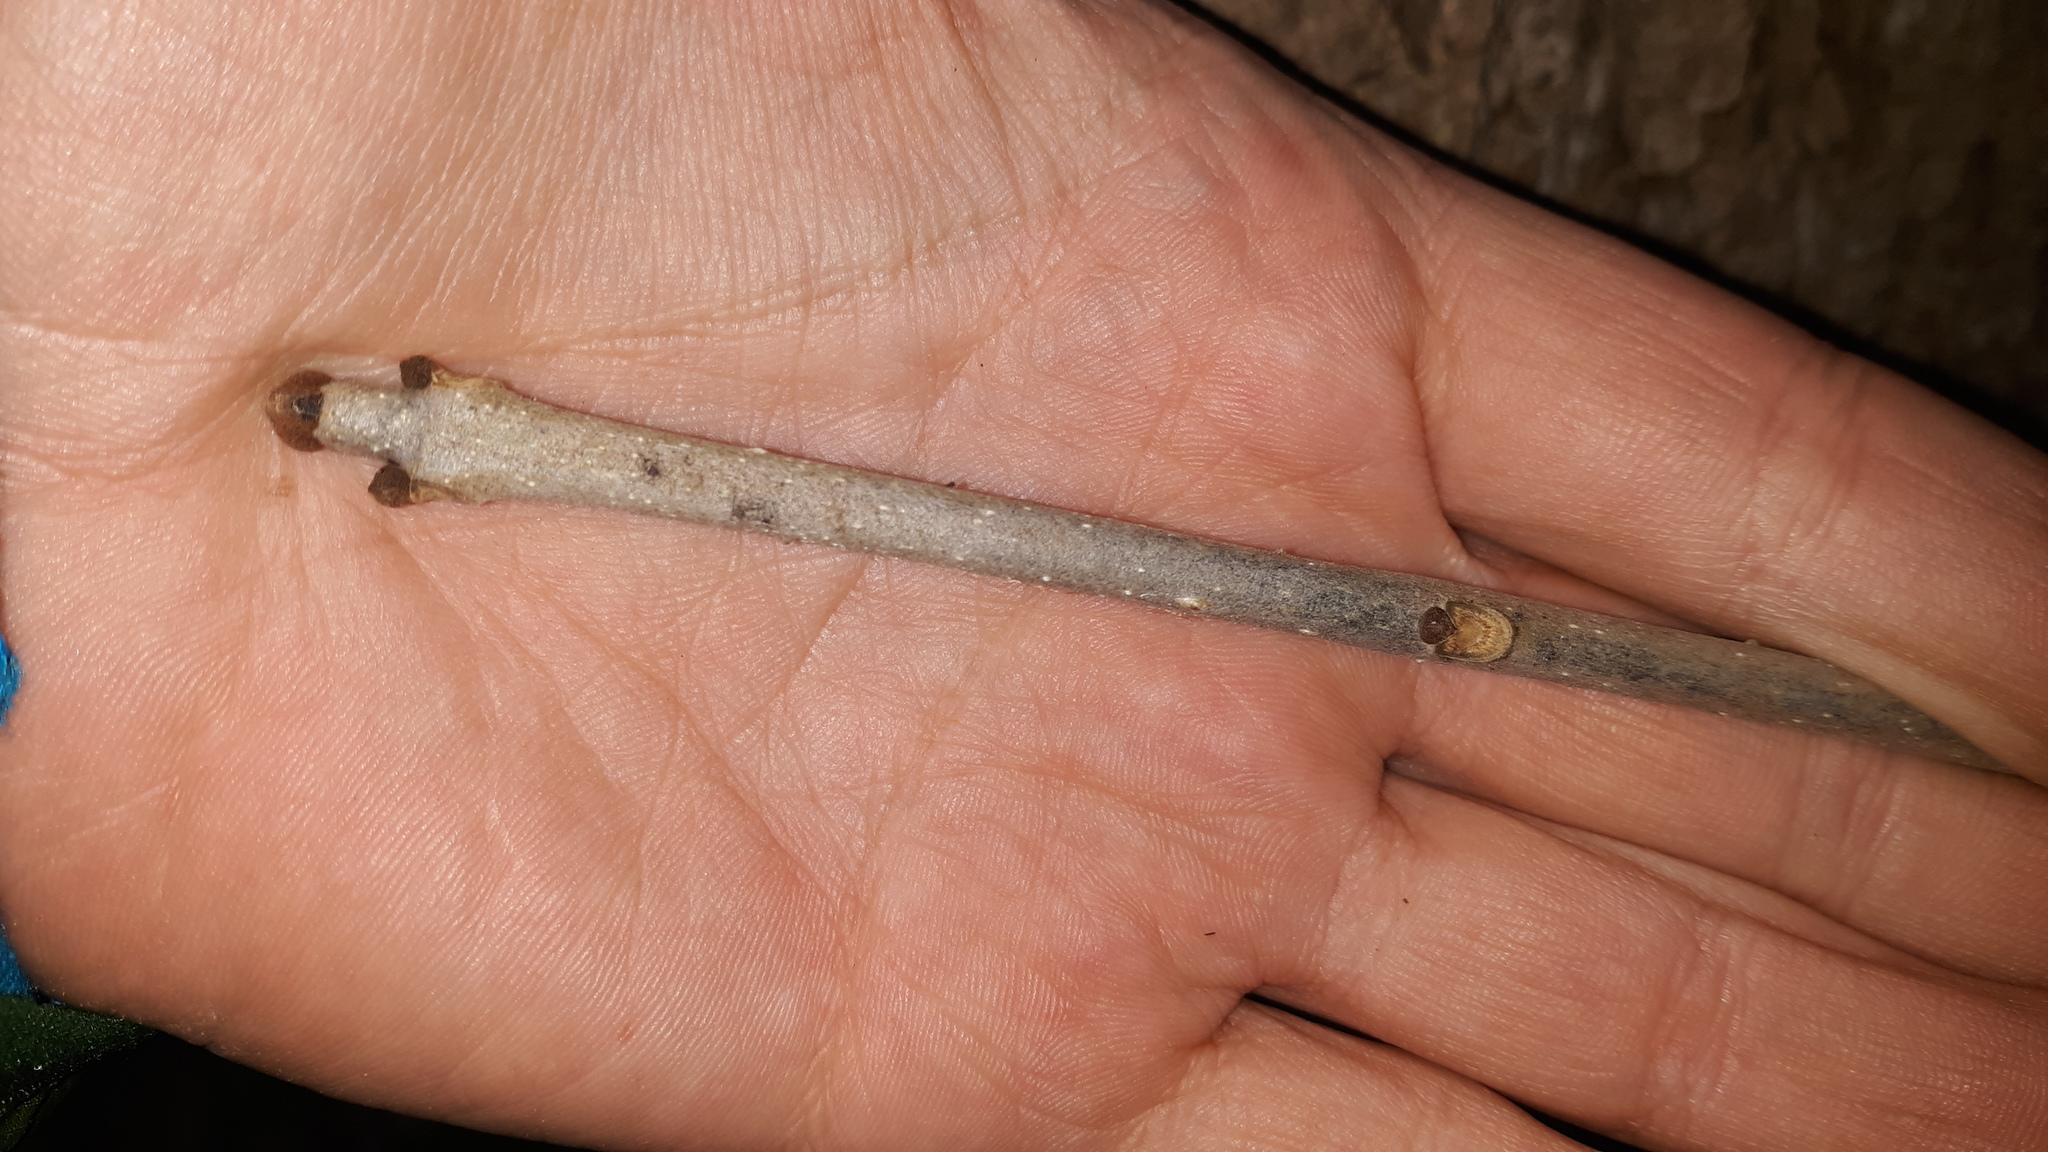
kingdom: Plantae
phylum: Tracheophyta
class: Magnoliopsida
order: Lamiales
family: Oleaceae
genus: Fraxinus
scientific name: Fraxinus pennsylvanica
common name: Green ash
